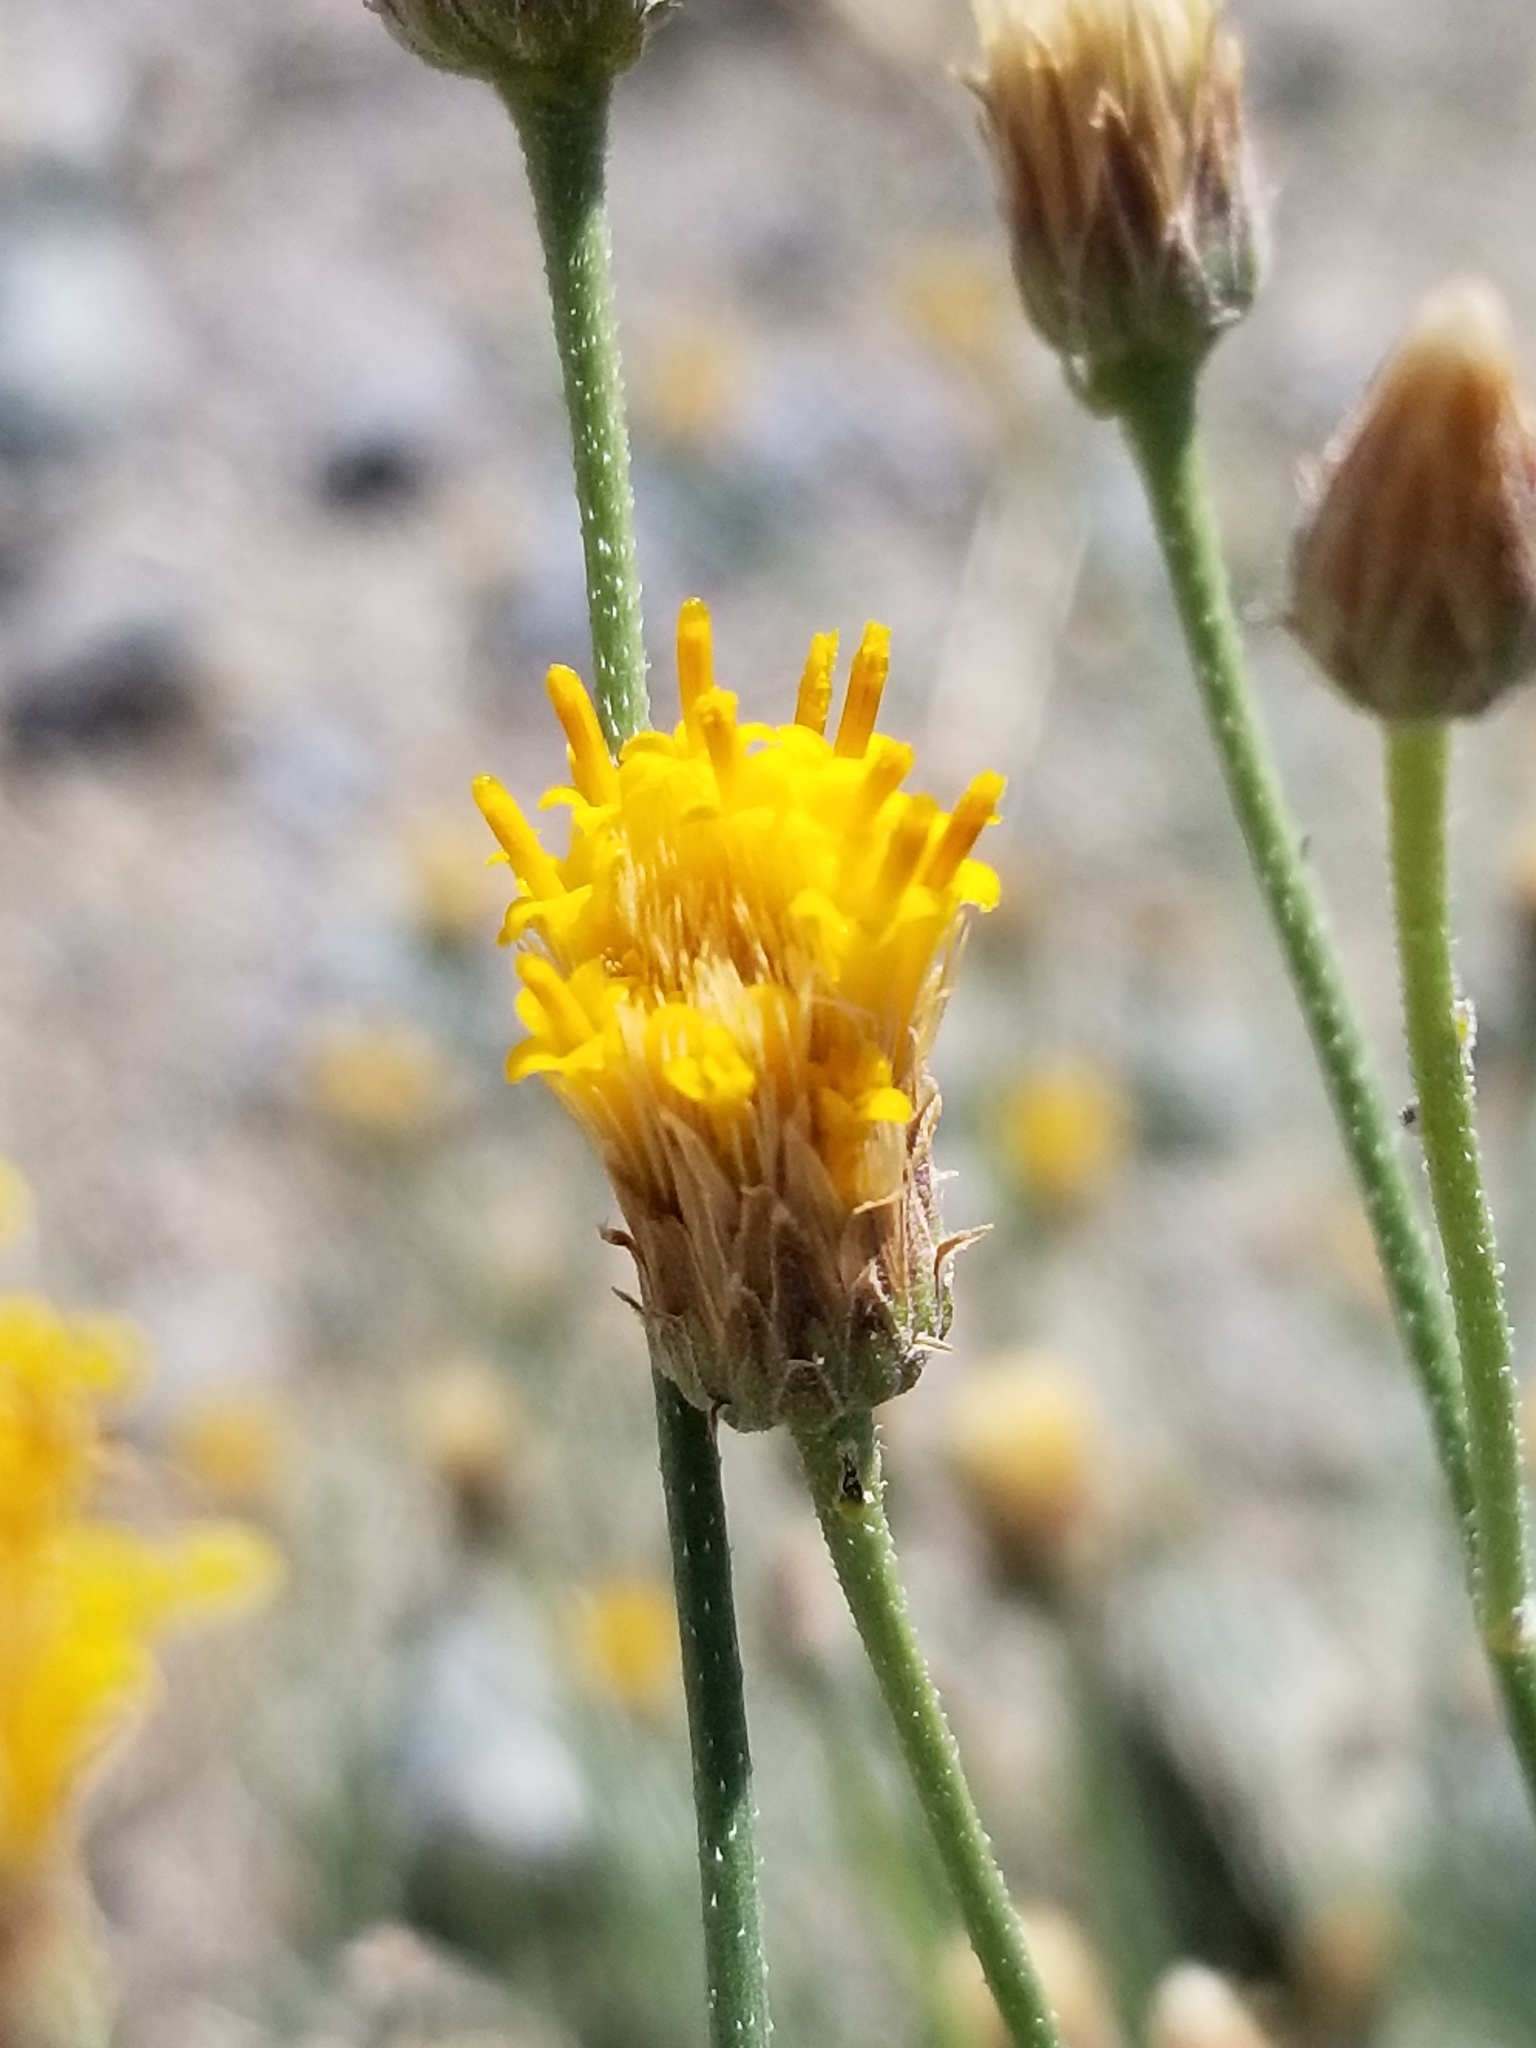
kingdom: Plantae
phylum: Tracheophyta
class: Magnoliopsida
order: Asterales
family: Asteraceae
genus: Bebbia
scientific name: Bebbia juncea
